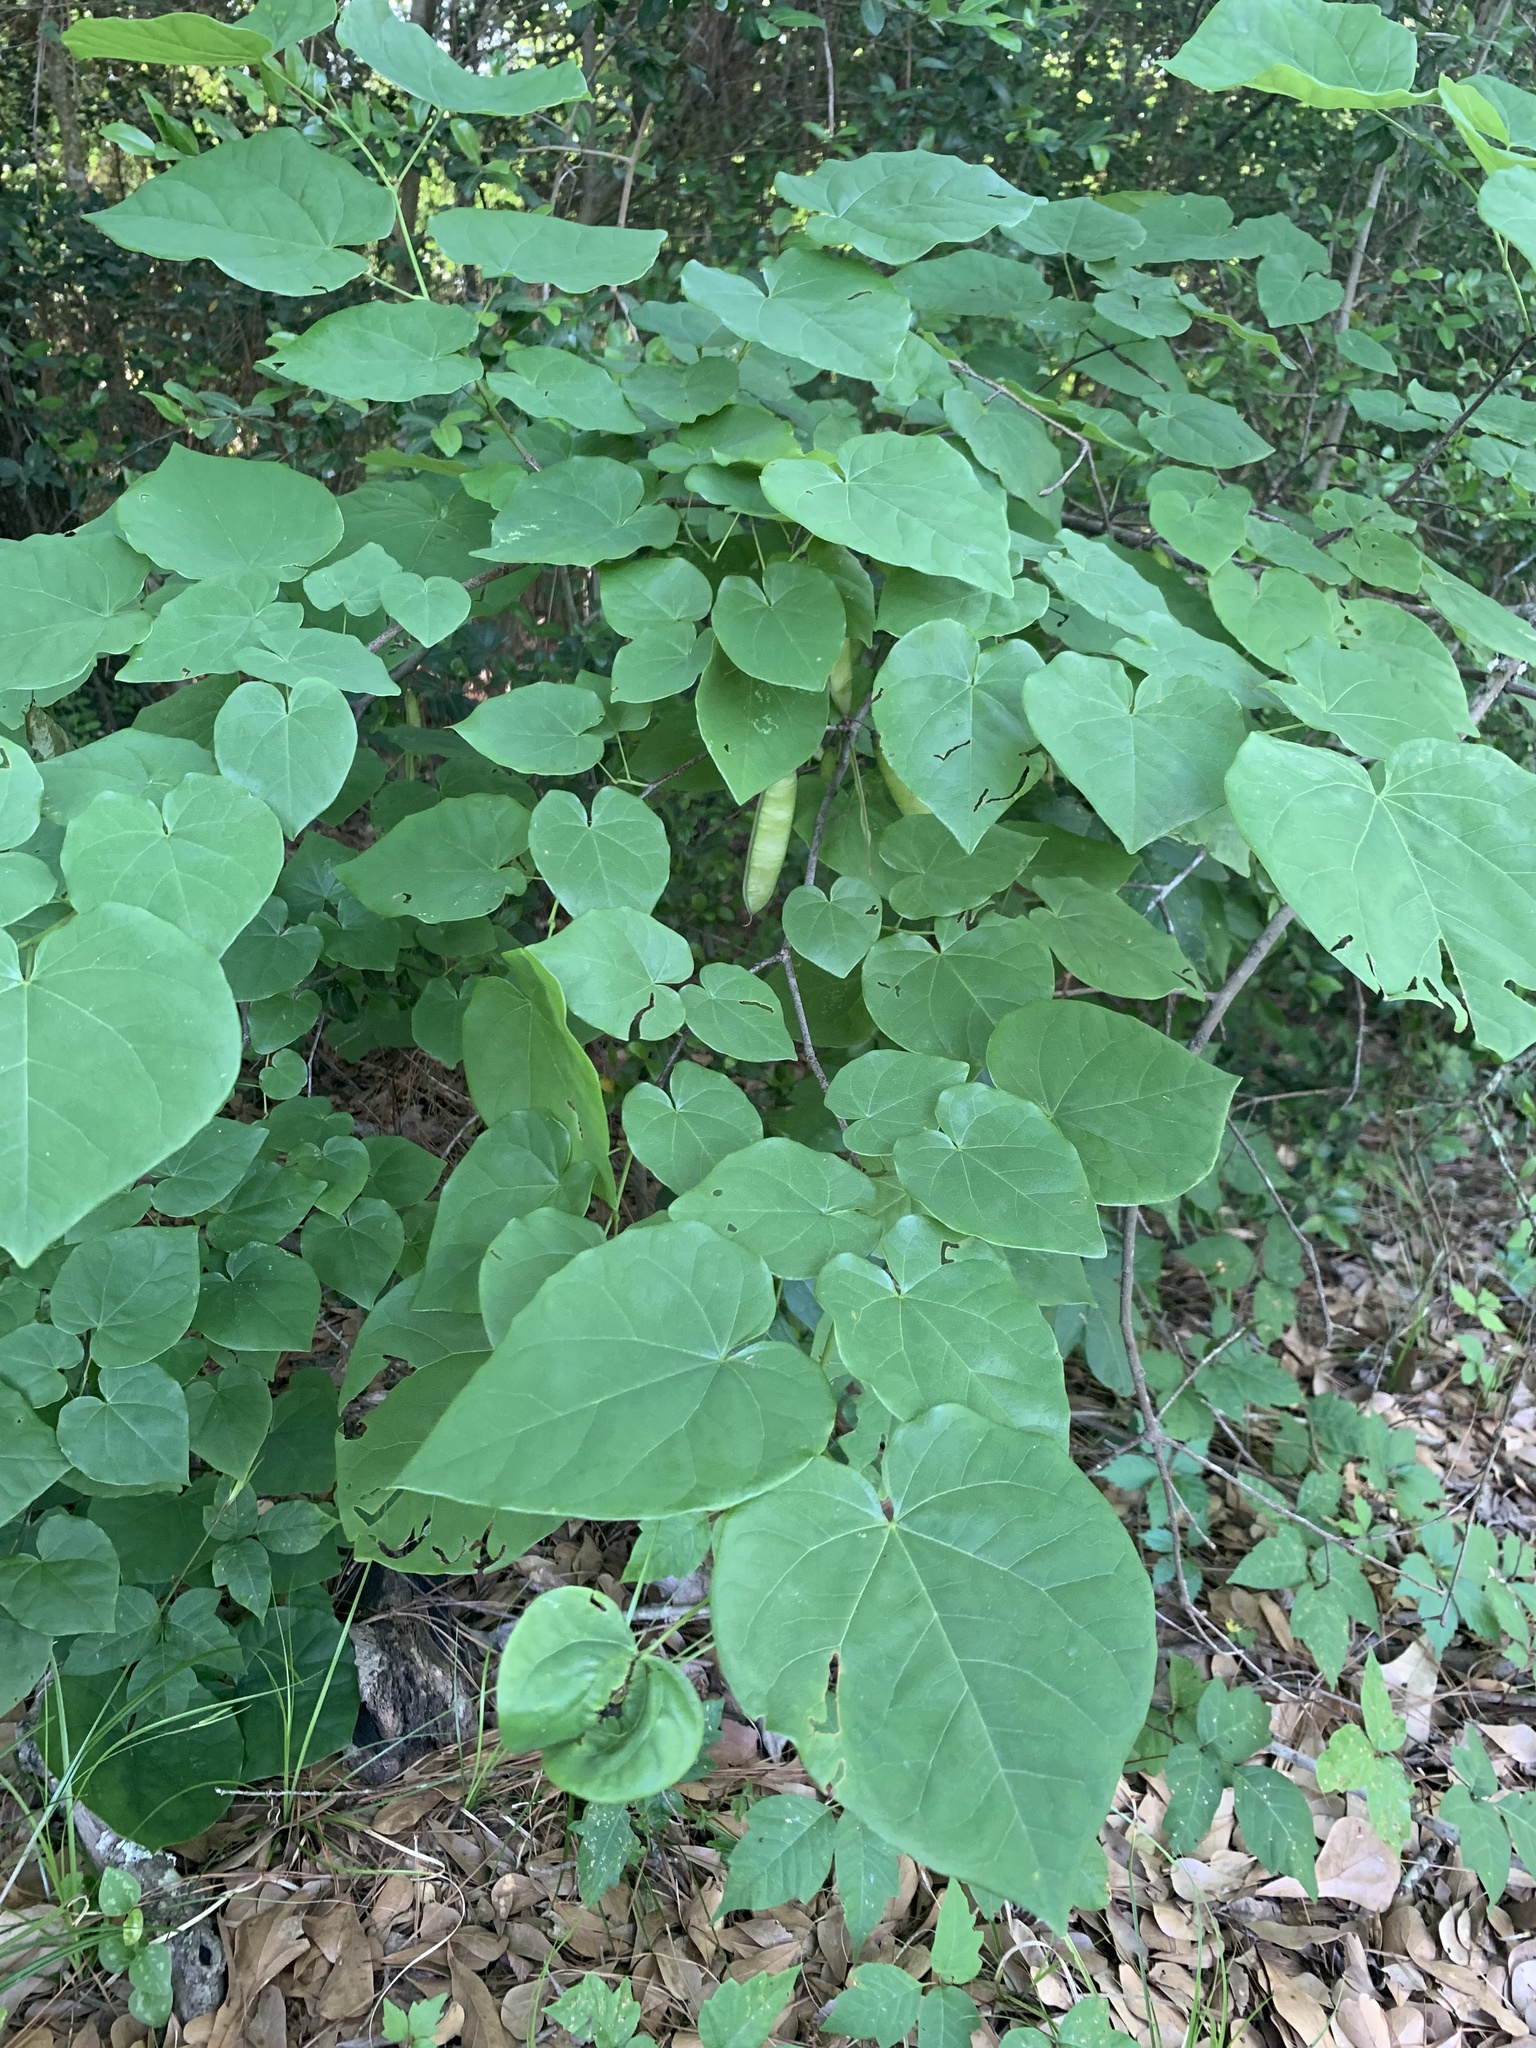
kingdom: Plantae
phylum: Tracheophyta
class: Magnoliopsida
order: Fabales
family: Fabaceae
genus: Cercis
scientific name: Cercis canadensis
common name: Eastern redbud
